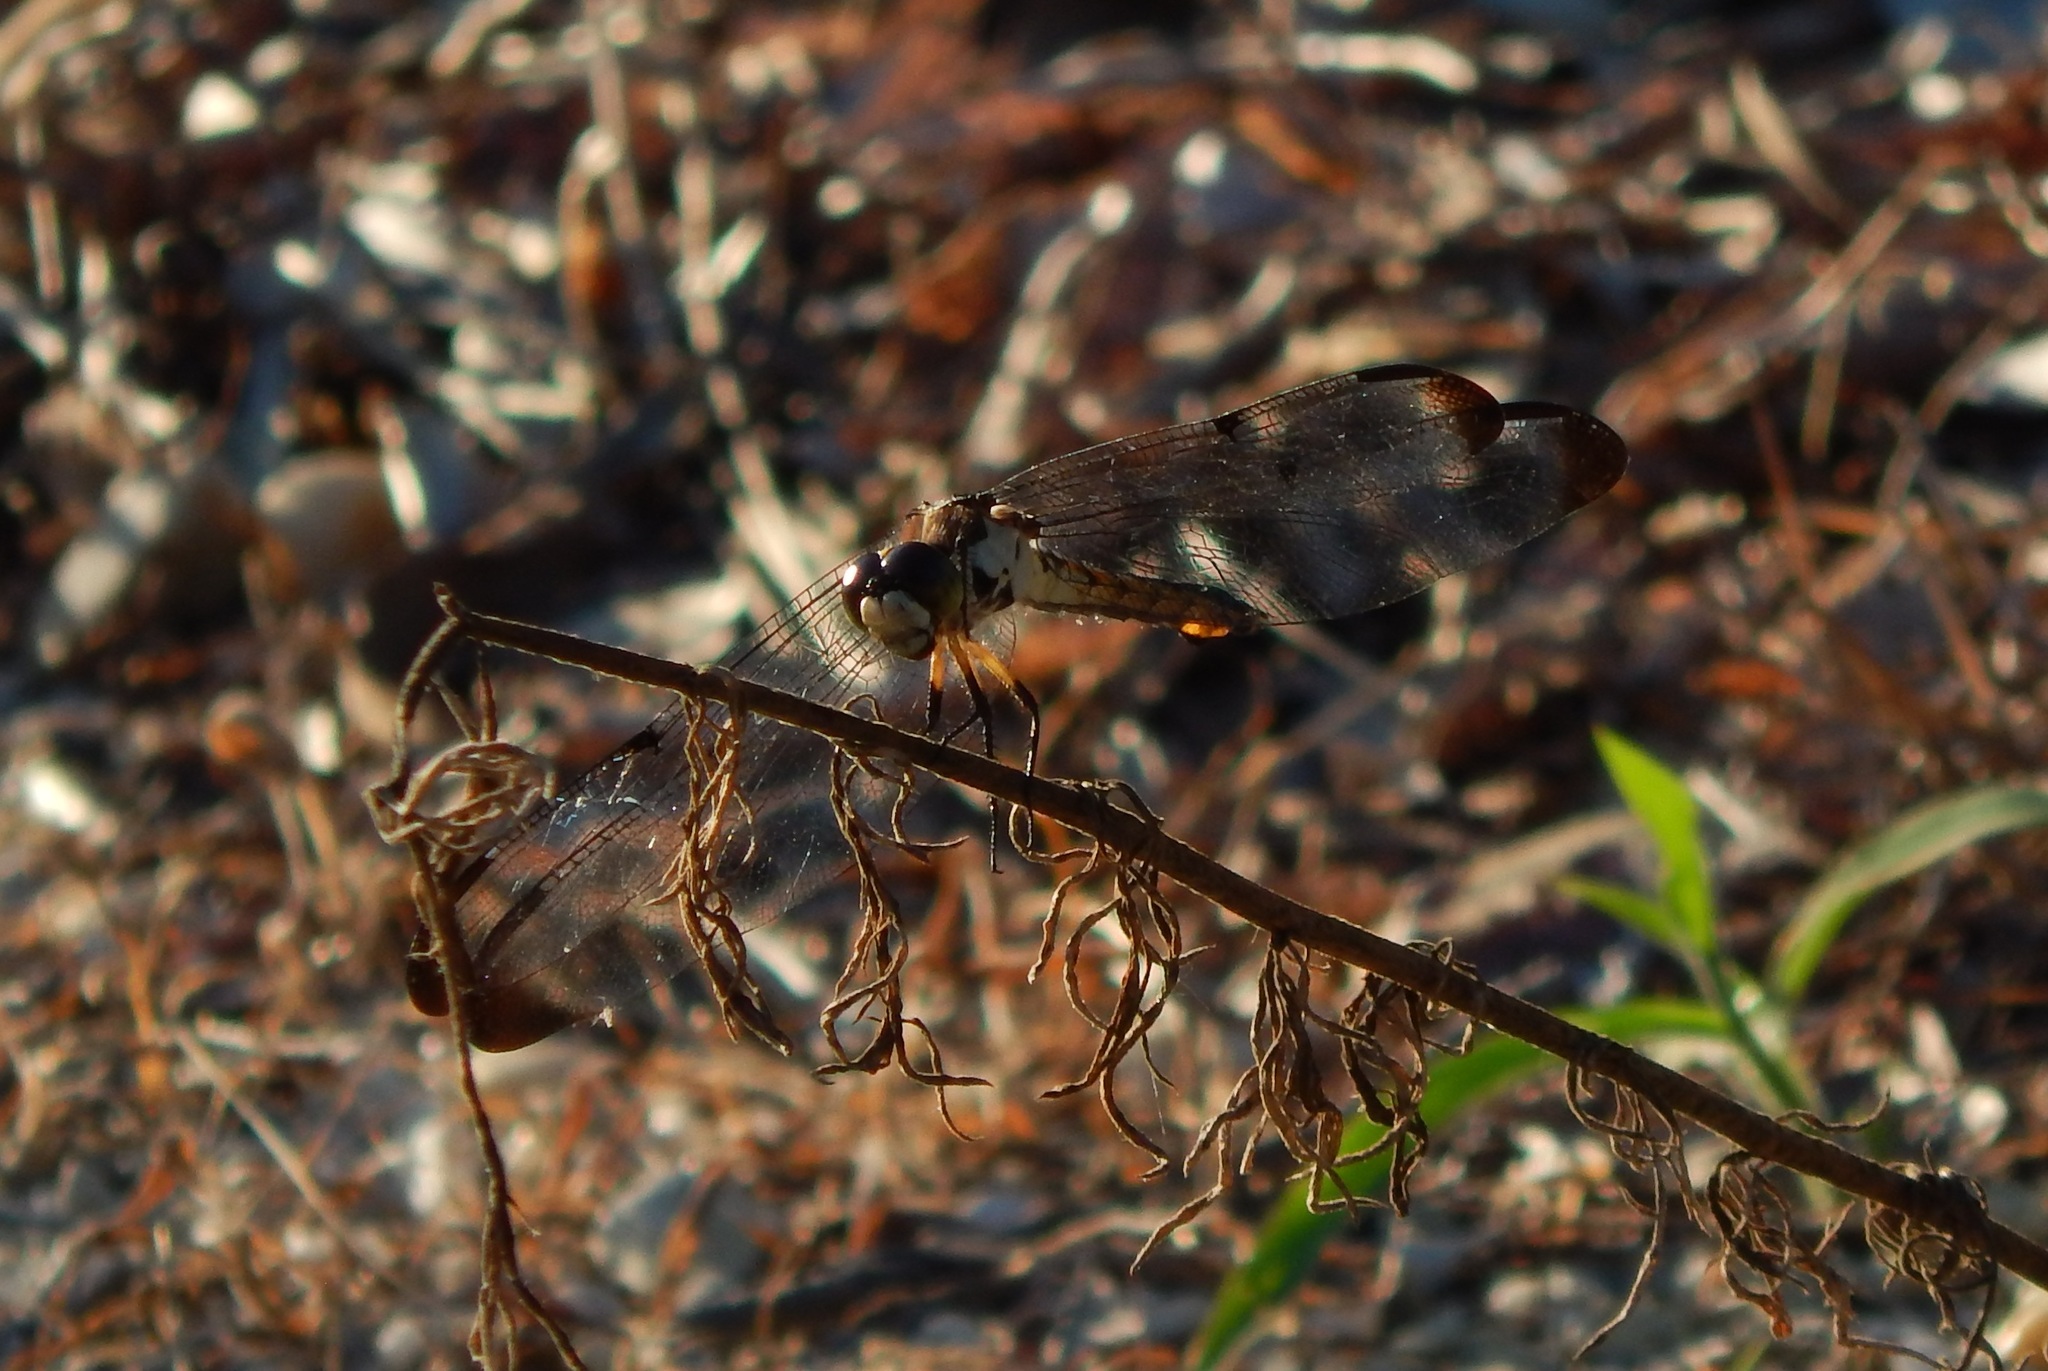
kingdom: Animalia
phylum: Arthropoda
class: Insecta
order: Odonata
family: Libellulidae
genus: Libellula
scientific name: Libellula vibrans
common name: Great blue skimmer
